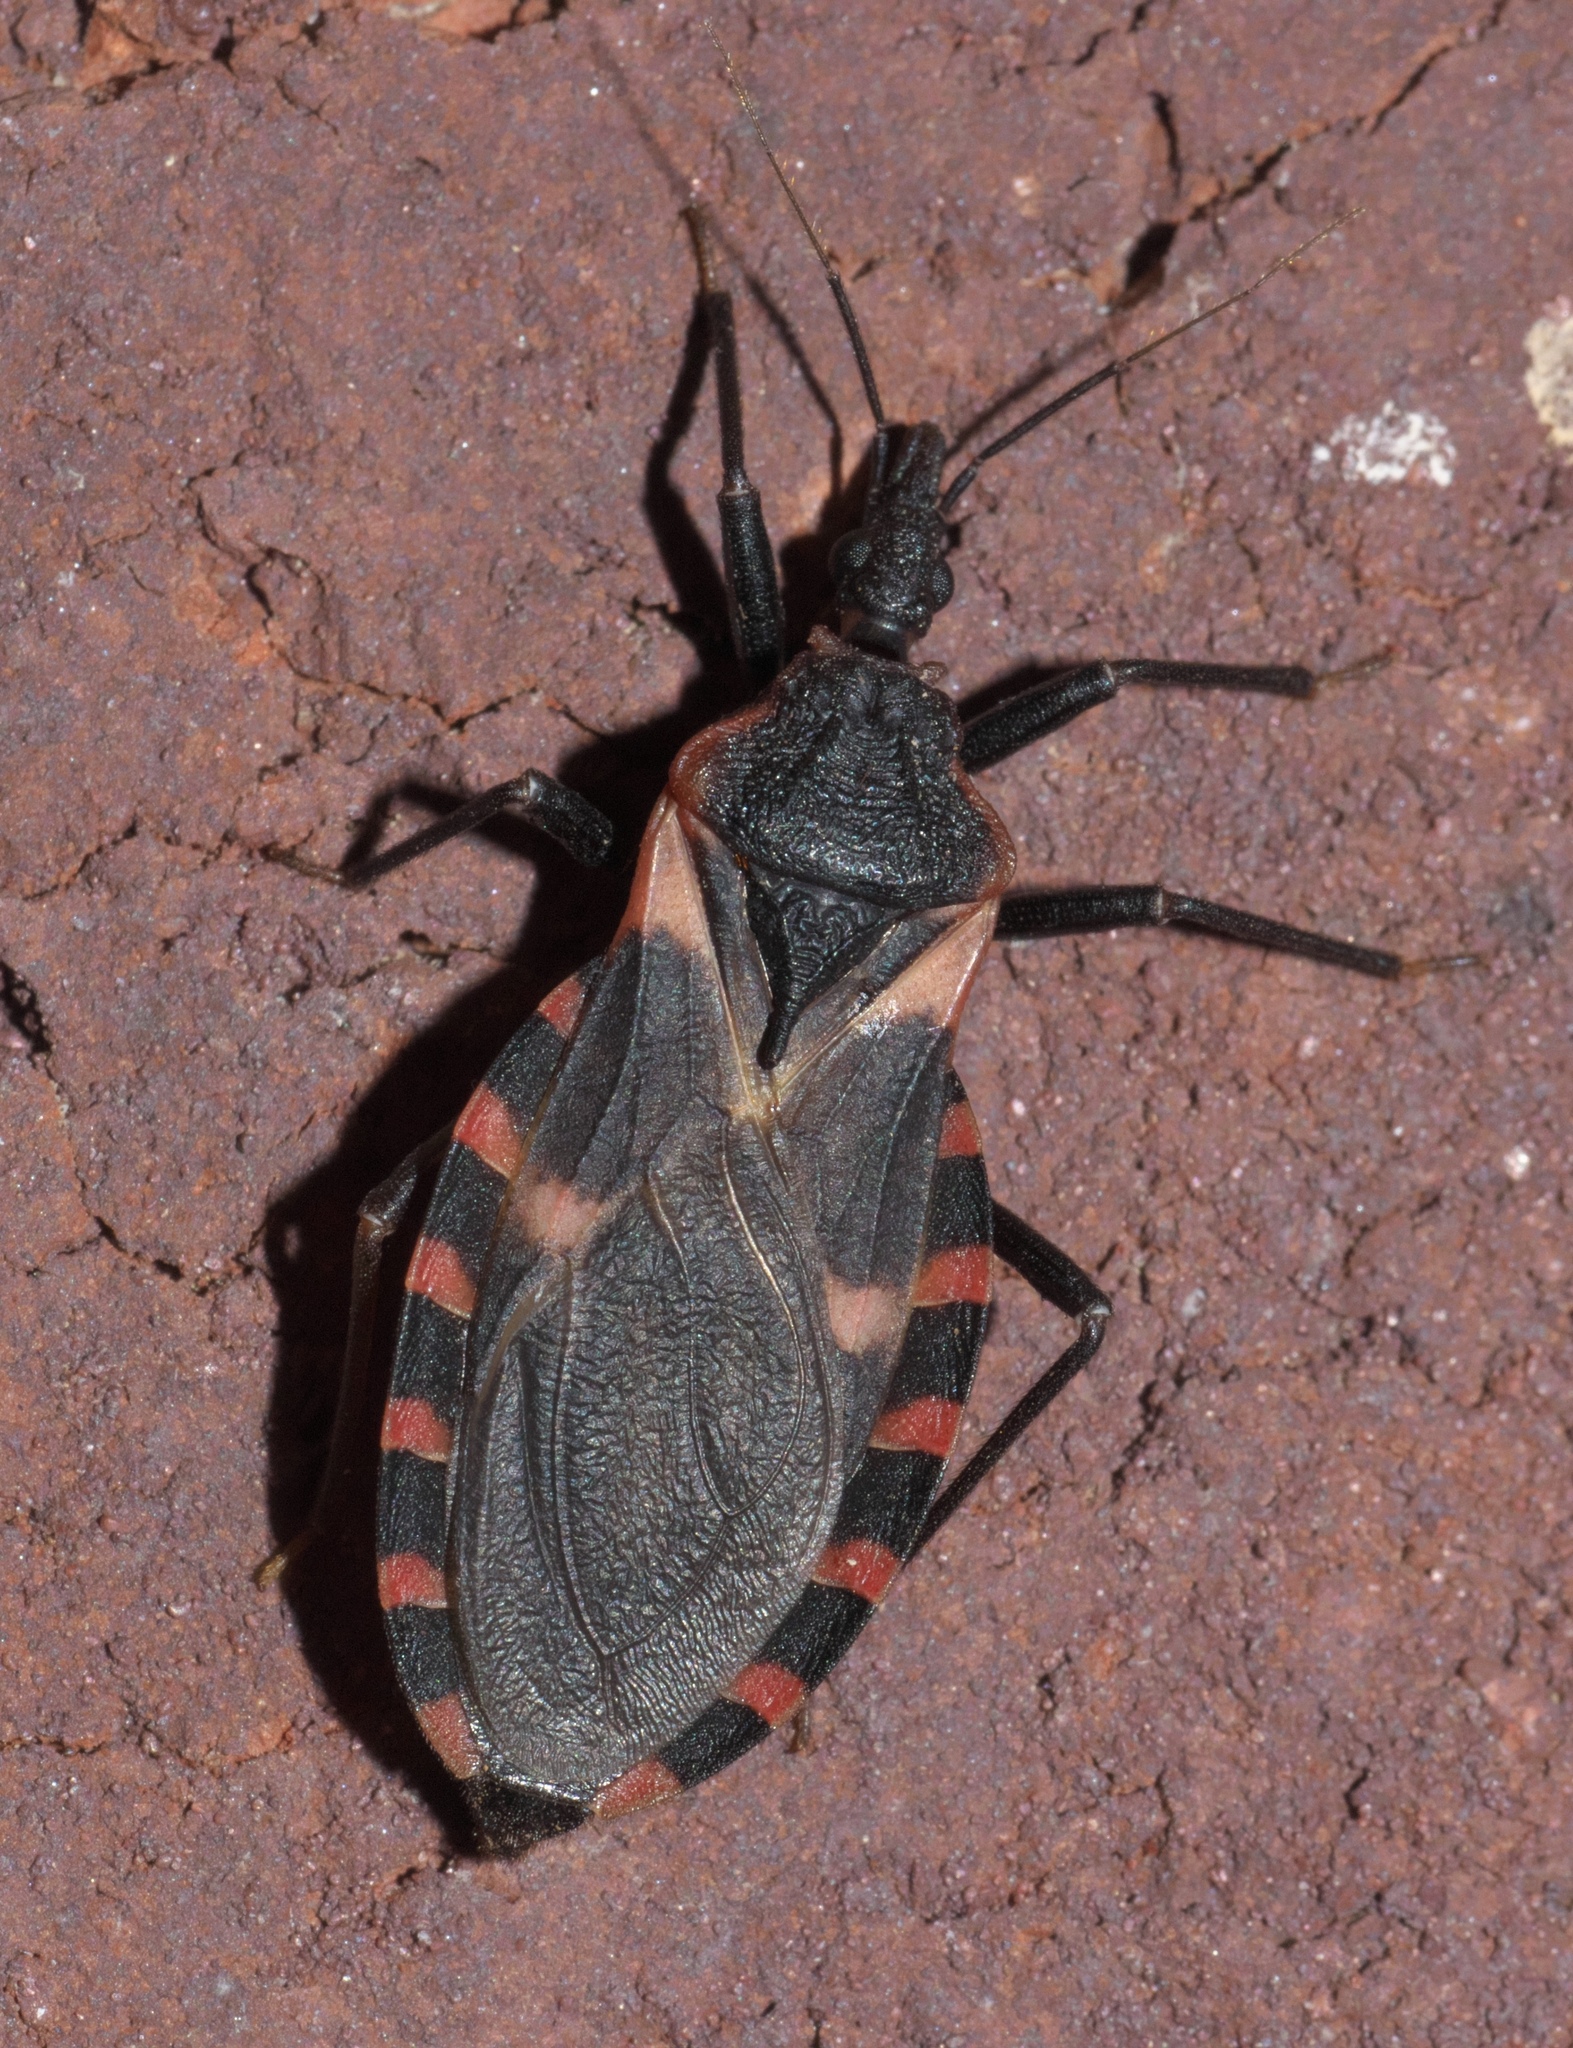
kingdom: Animalia
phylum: Arthropoda
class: Insecta
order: Hemiptera
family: Reduviidae
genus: Triatoma
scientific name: Triatoma sanguisuga
